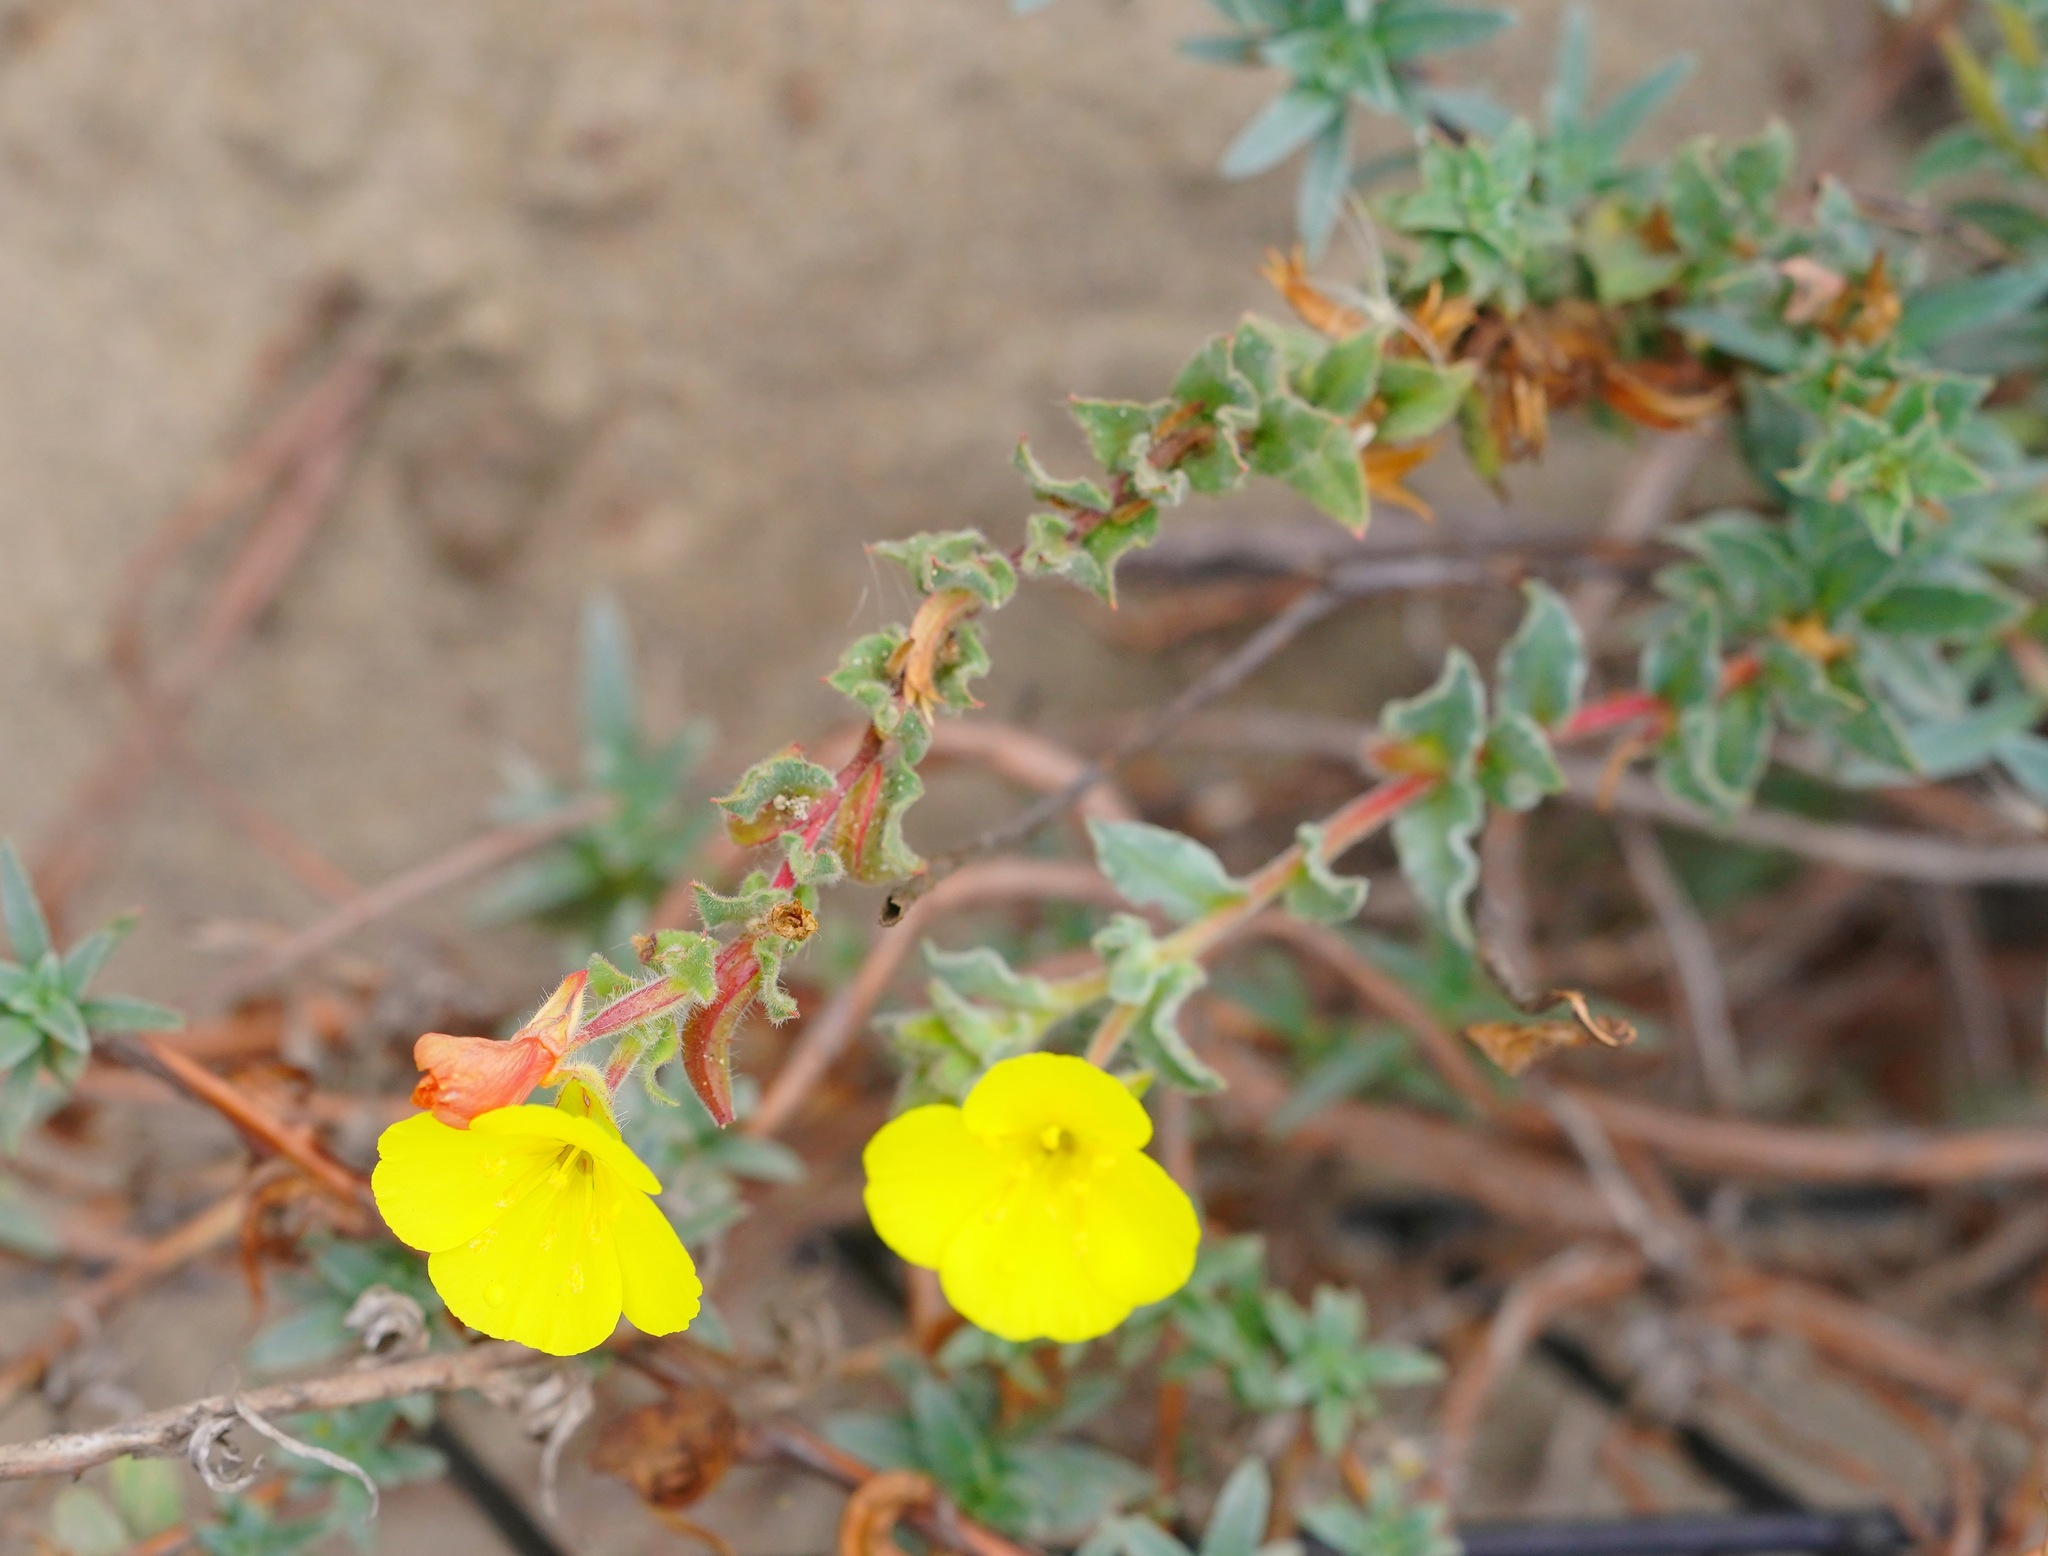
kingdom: Plantae
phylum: Tracheophyta
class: Magnoliopsida
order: Myrtales
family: Onagraceae
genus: Camissoniopsis
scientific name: Camissoniopsis cheiranthifolia
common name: Beach suncup
